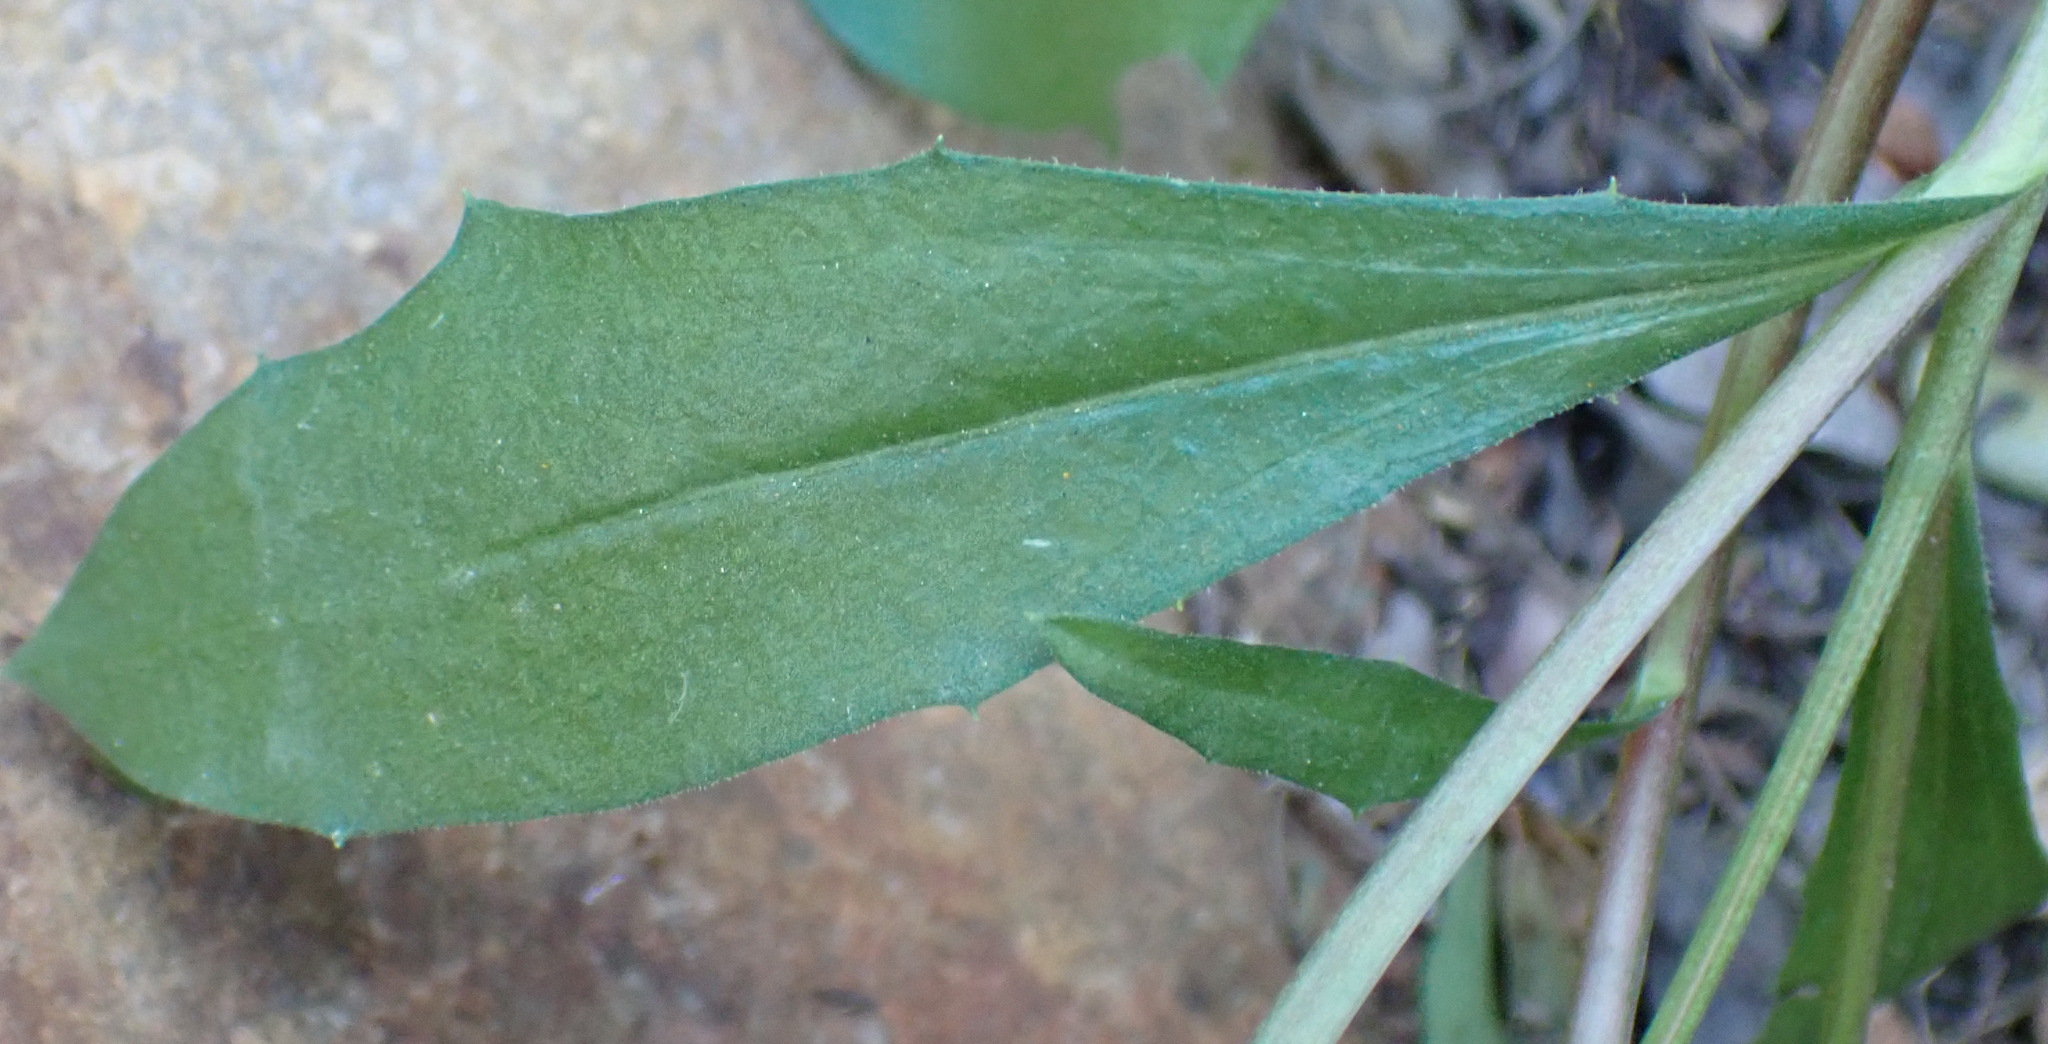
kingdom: Plantae
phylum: Tracheophyta
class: Magnoliopsida
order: Asterales
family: Asteraceae
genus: Dimorphotheca
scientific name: Dimorphotheca ecklonis
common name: Vanstaden's river daisy
